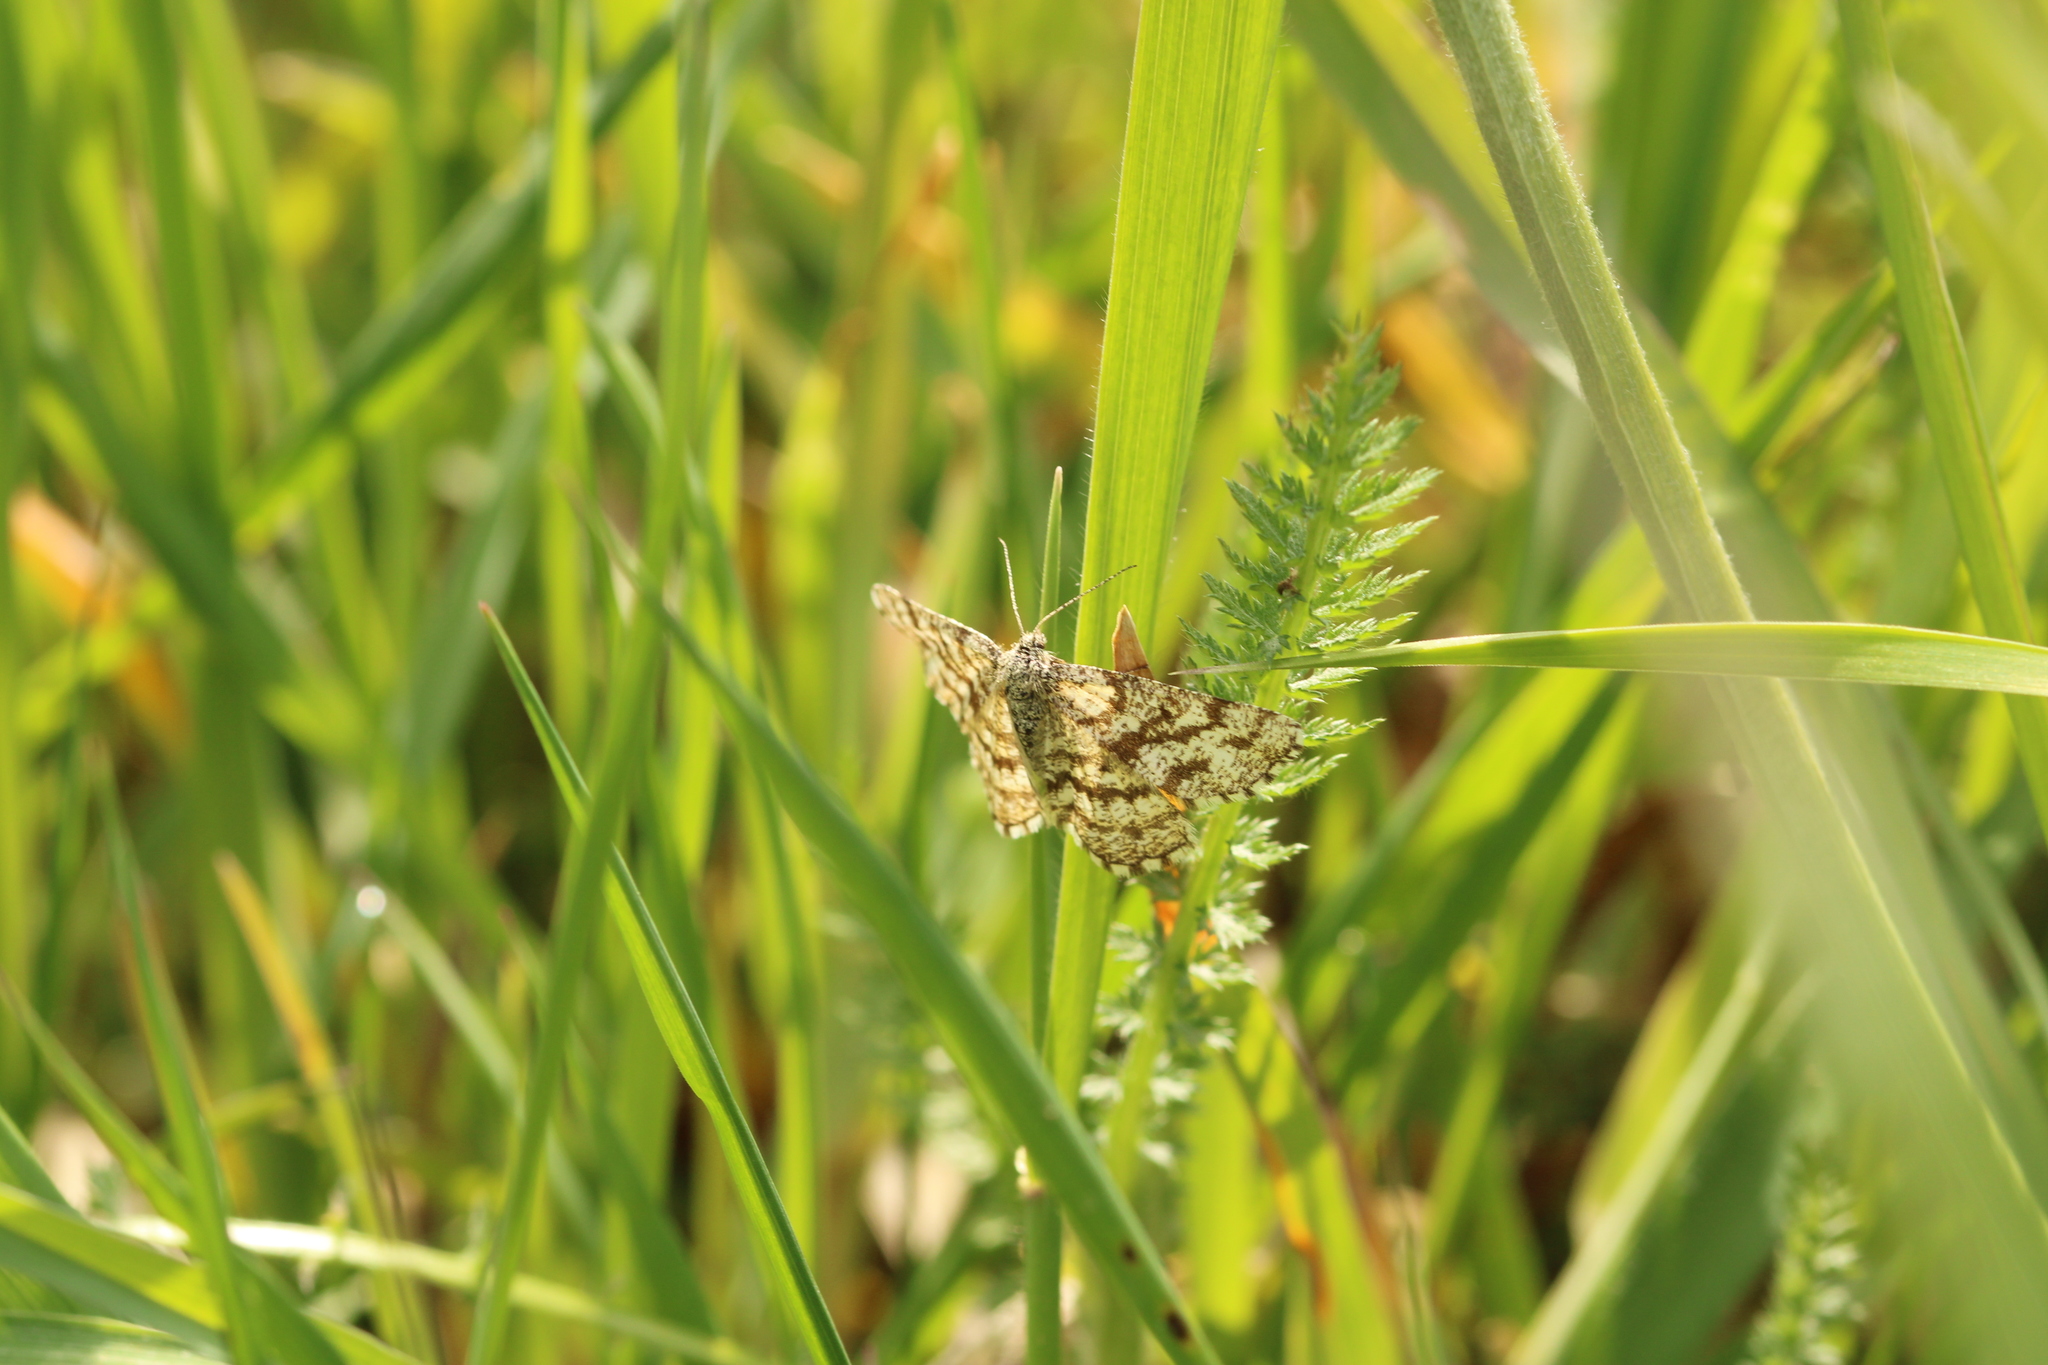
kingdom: Animalia
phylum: Arthropoda
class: Insecta
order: Lepidoptera
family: Geometridae
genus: Ematurga
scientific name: Ematurga atomaria
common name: Common heath
